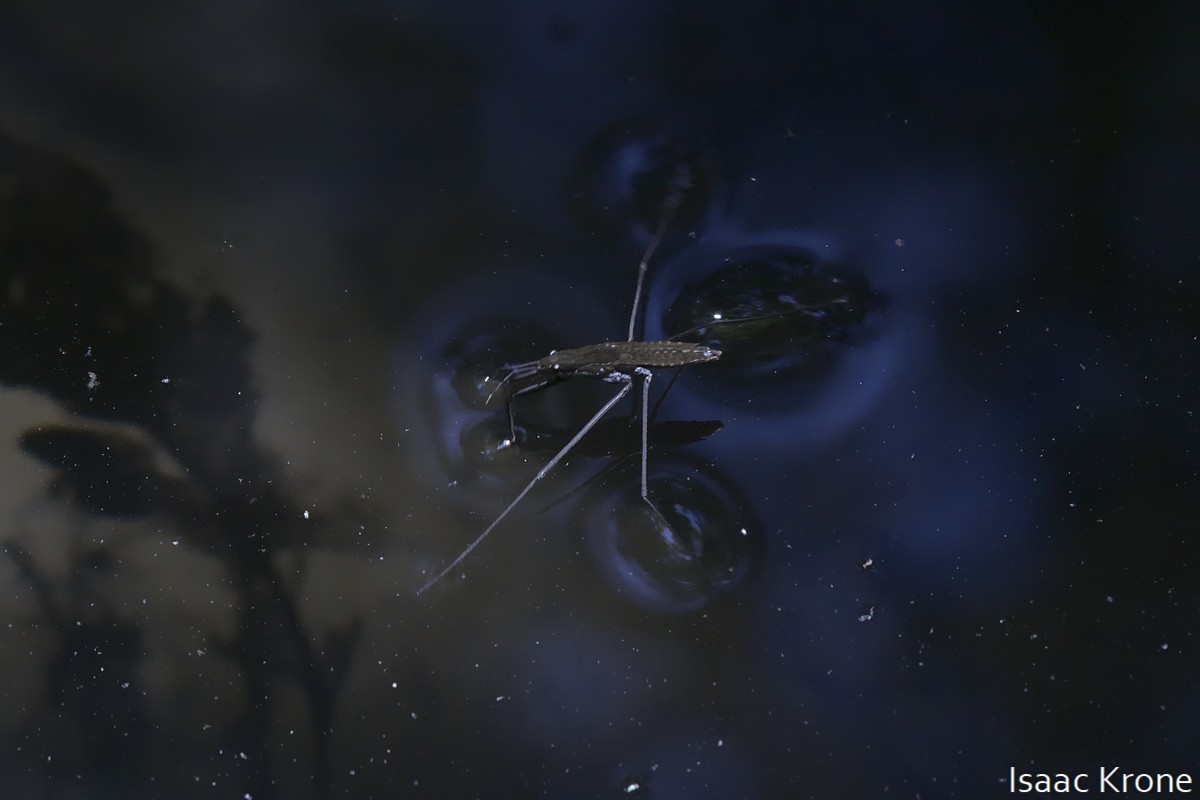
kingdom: Animalia
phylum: Arthropoda
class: Insecta
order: Hemiptera
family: Gerridae
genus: Aquarius
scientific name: Aquarius remigis
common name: Common water strider
